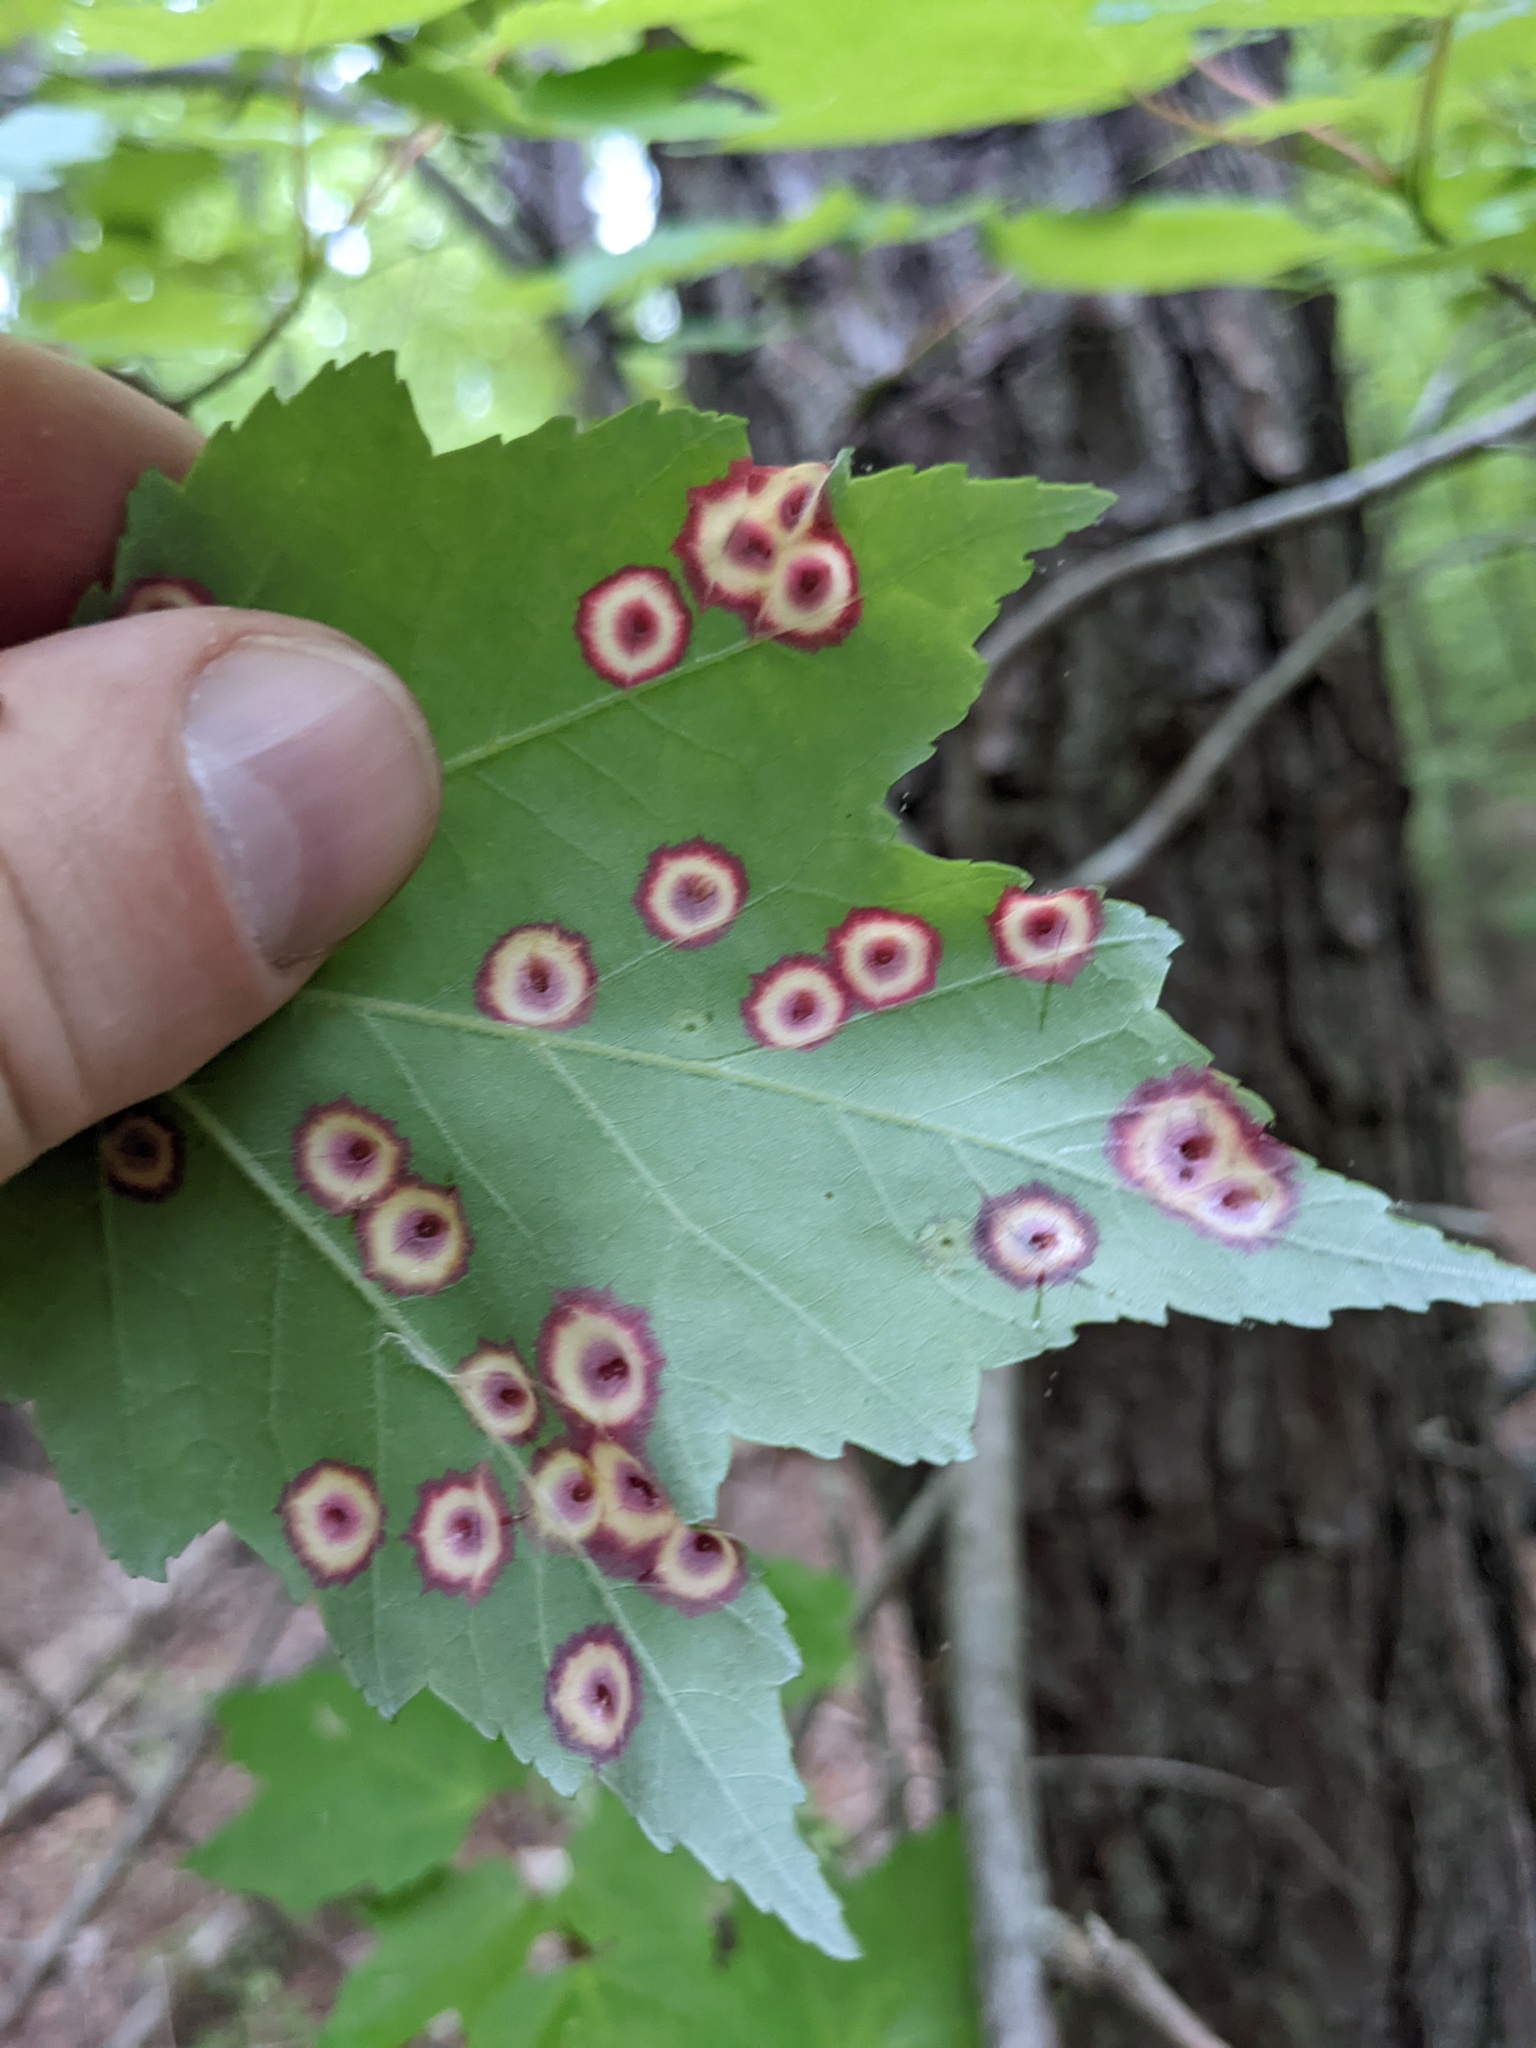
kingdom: Animalia
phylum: Arthropoda
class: Insecta
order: Diptera
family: Cecidomyiidae
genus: Acericecis
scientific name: Acericecis ocellaris
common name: Ocellate gall midge
